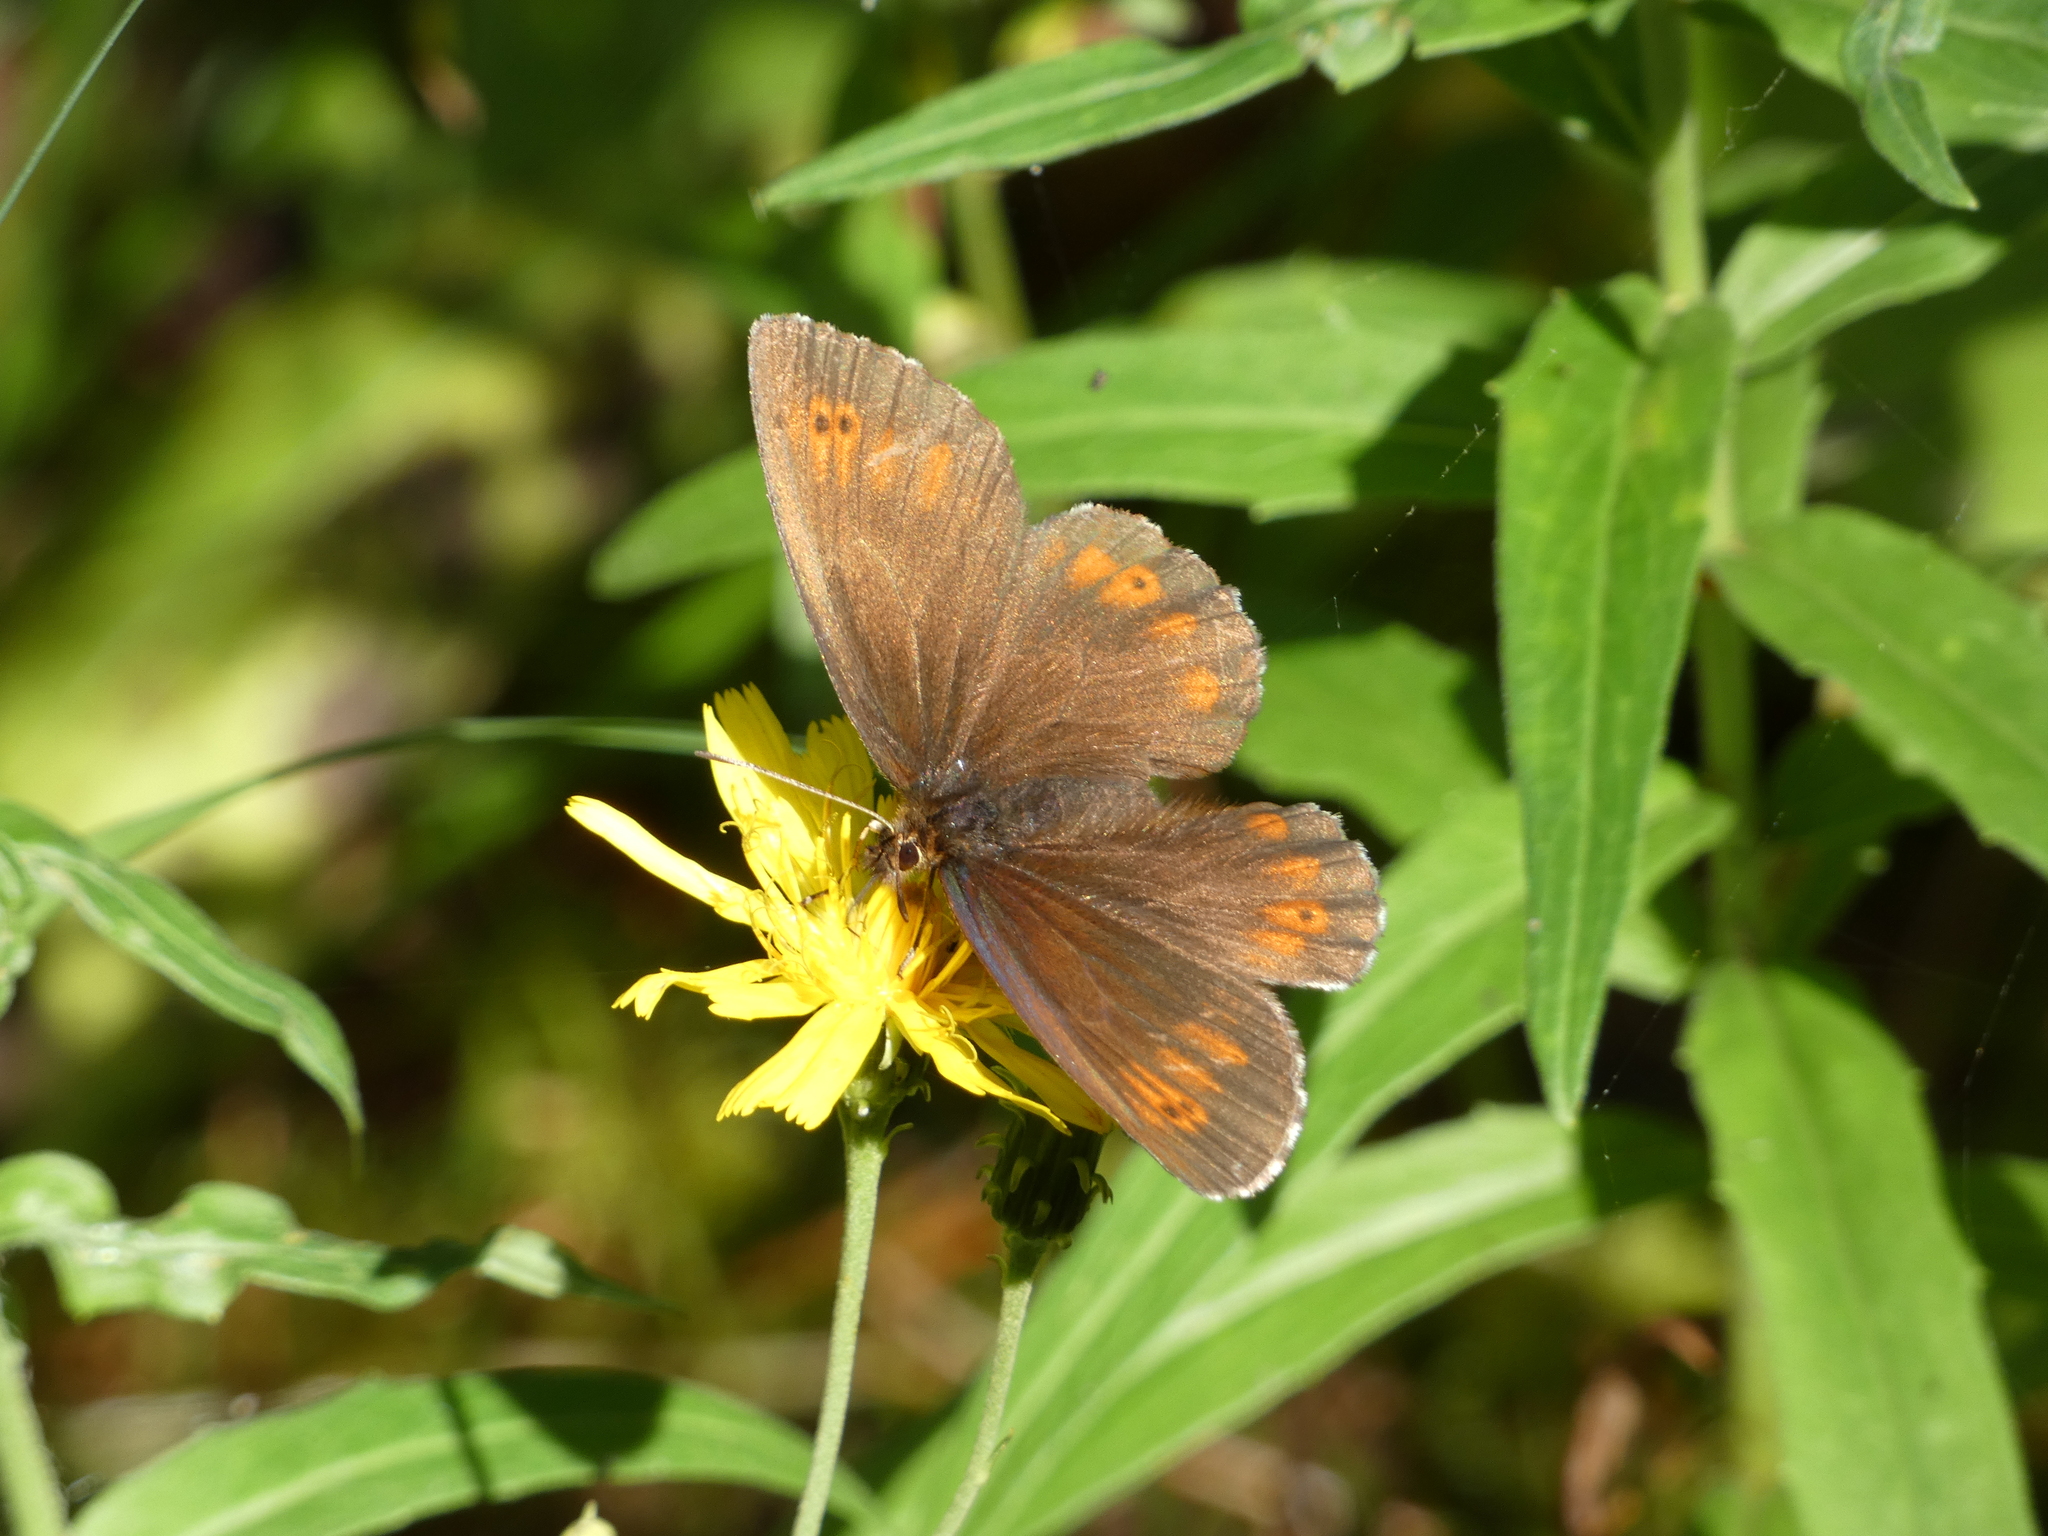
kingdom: Animalia
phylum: Arthropoda
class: Insecta
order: Lepidoptera
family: Nymphalidae
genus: Erebia
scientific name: Erebia euryale
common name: Large ringlet
